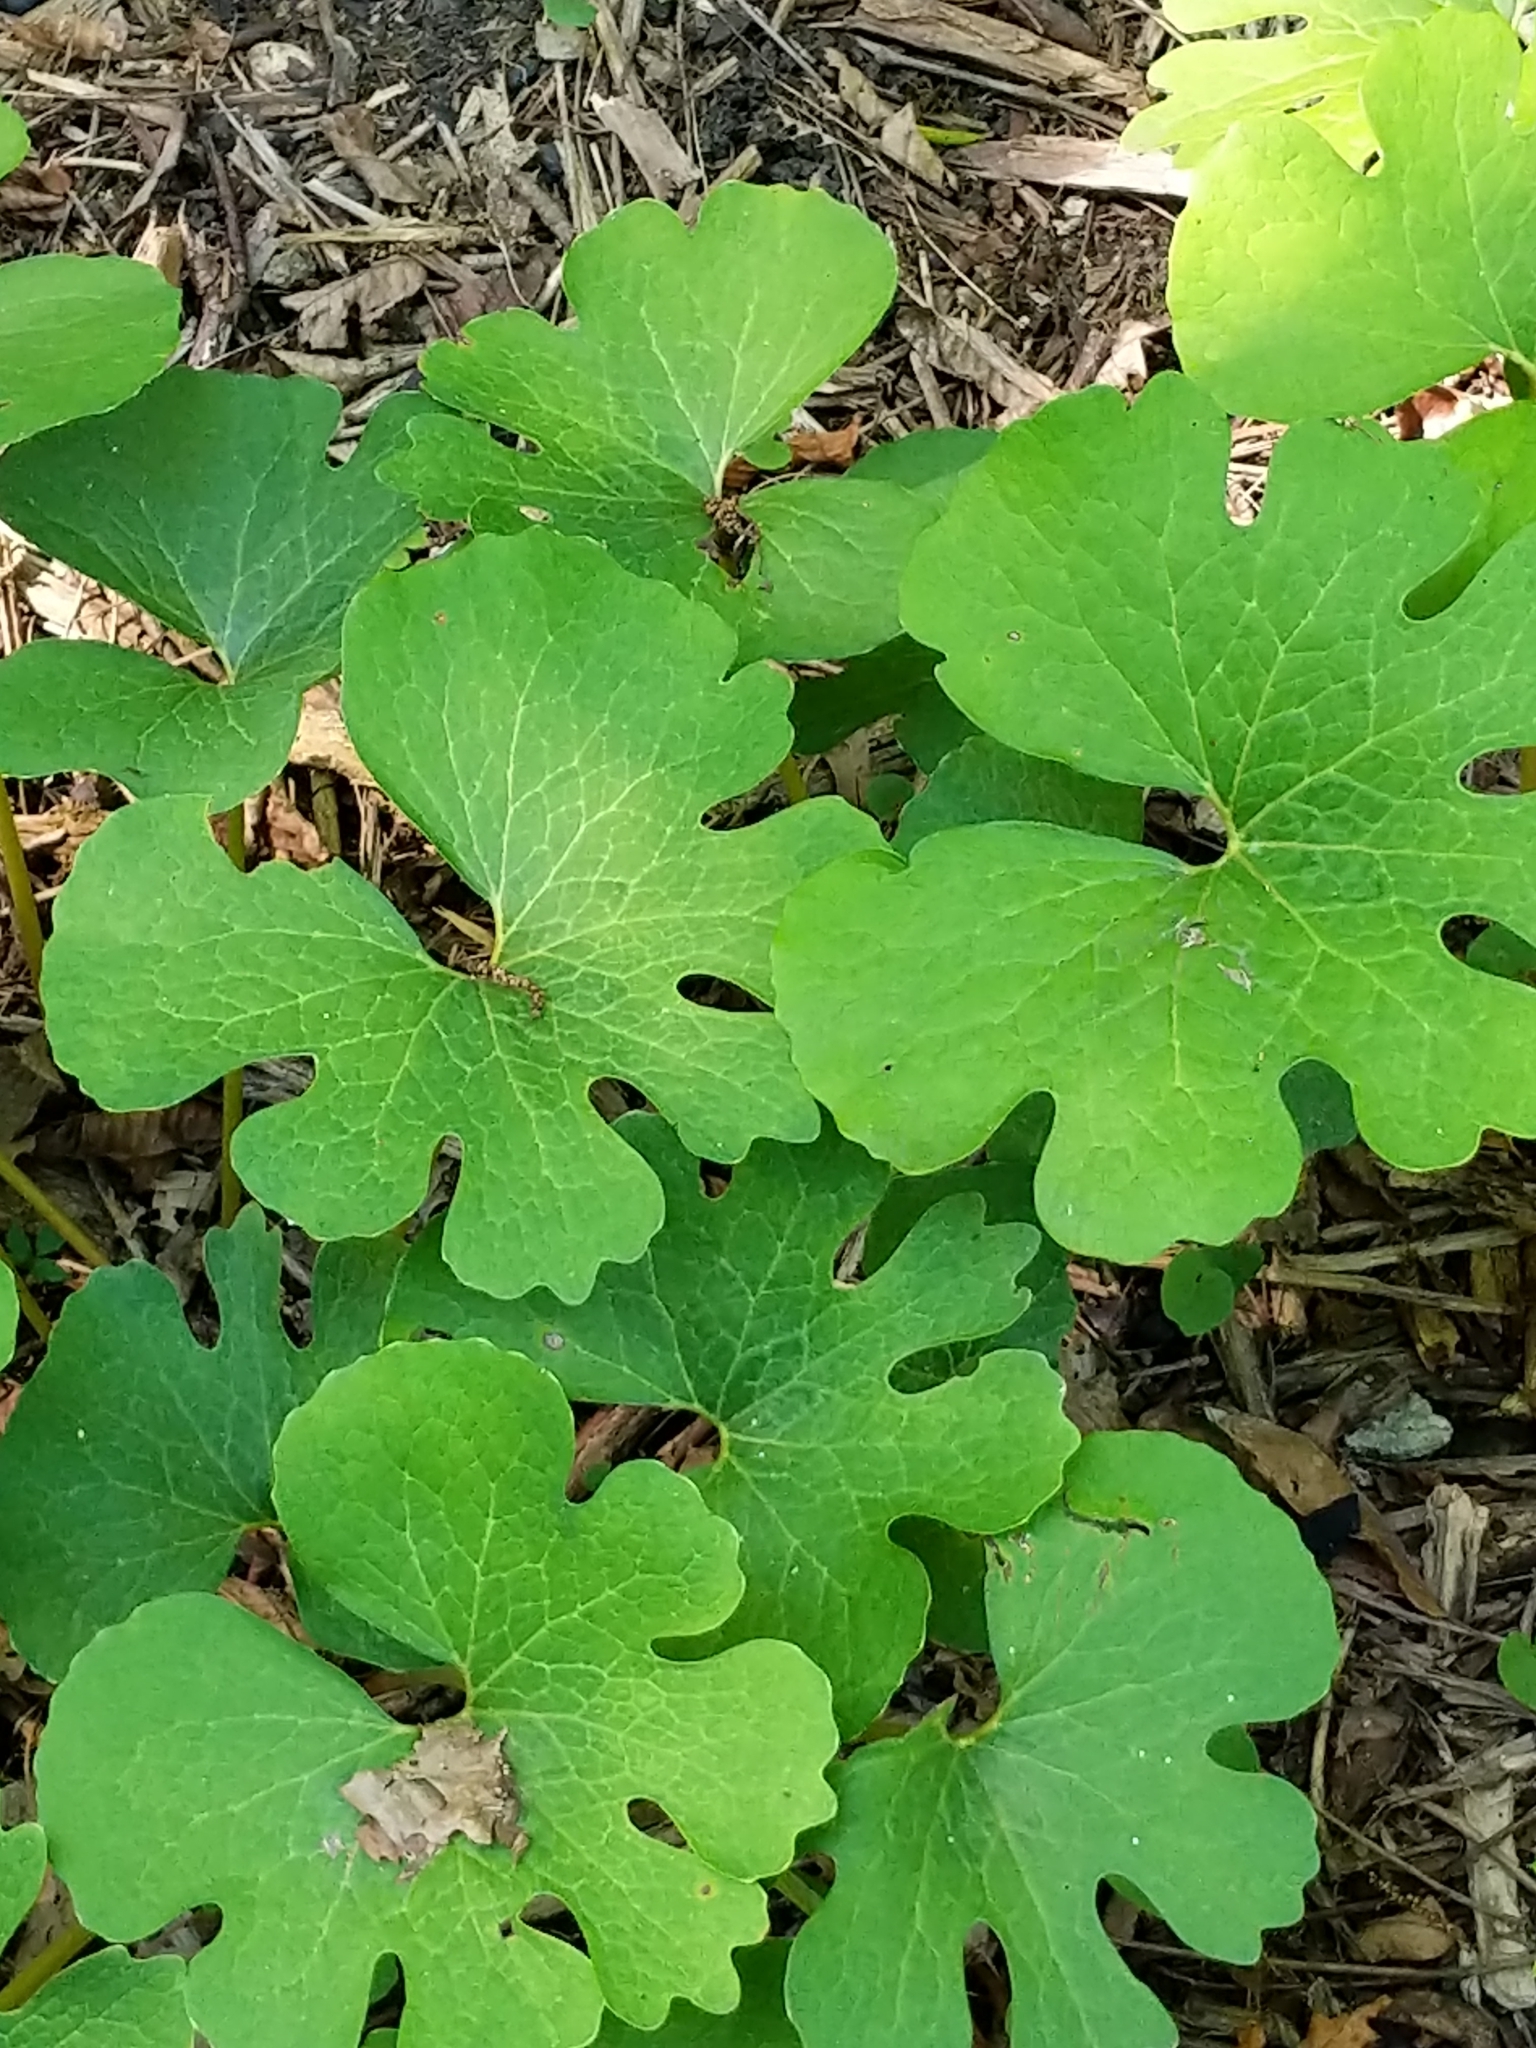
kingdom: Plantae
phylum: Tracheophyta
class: Magnoliopsida
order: Ranunculales
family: Papaveraceae
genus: Sanguinaria
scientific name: Sanguinaria canadensis
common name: Bloodroot
